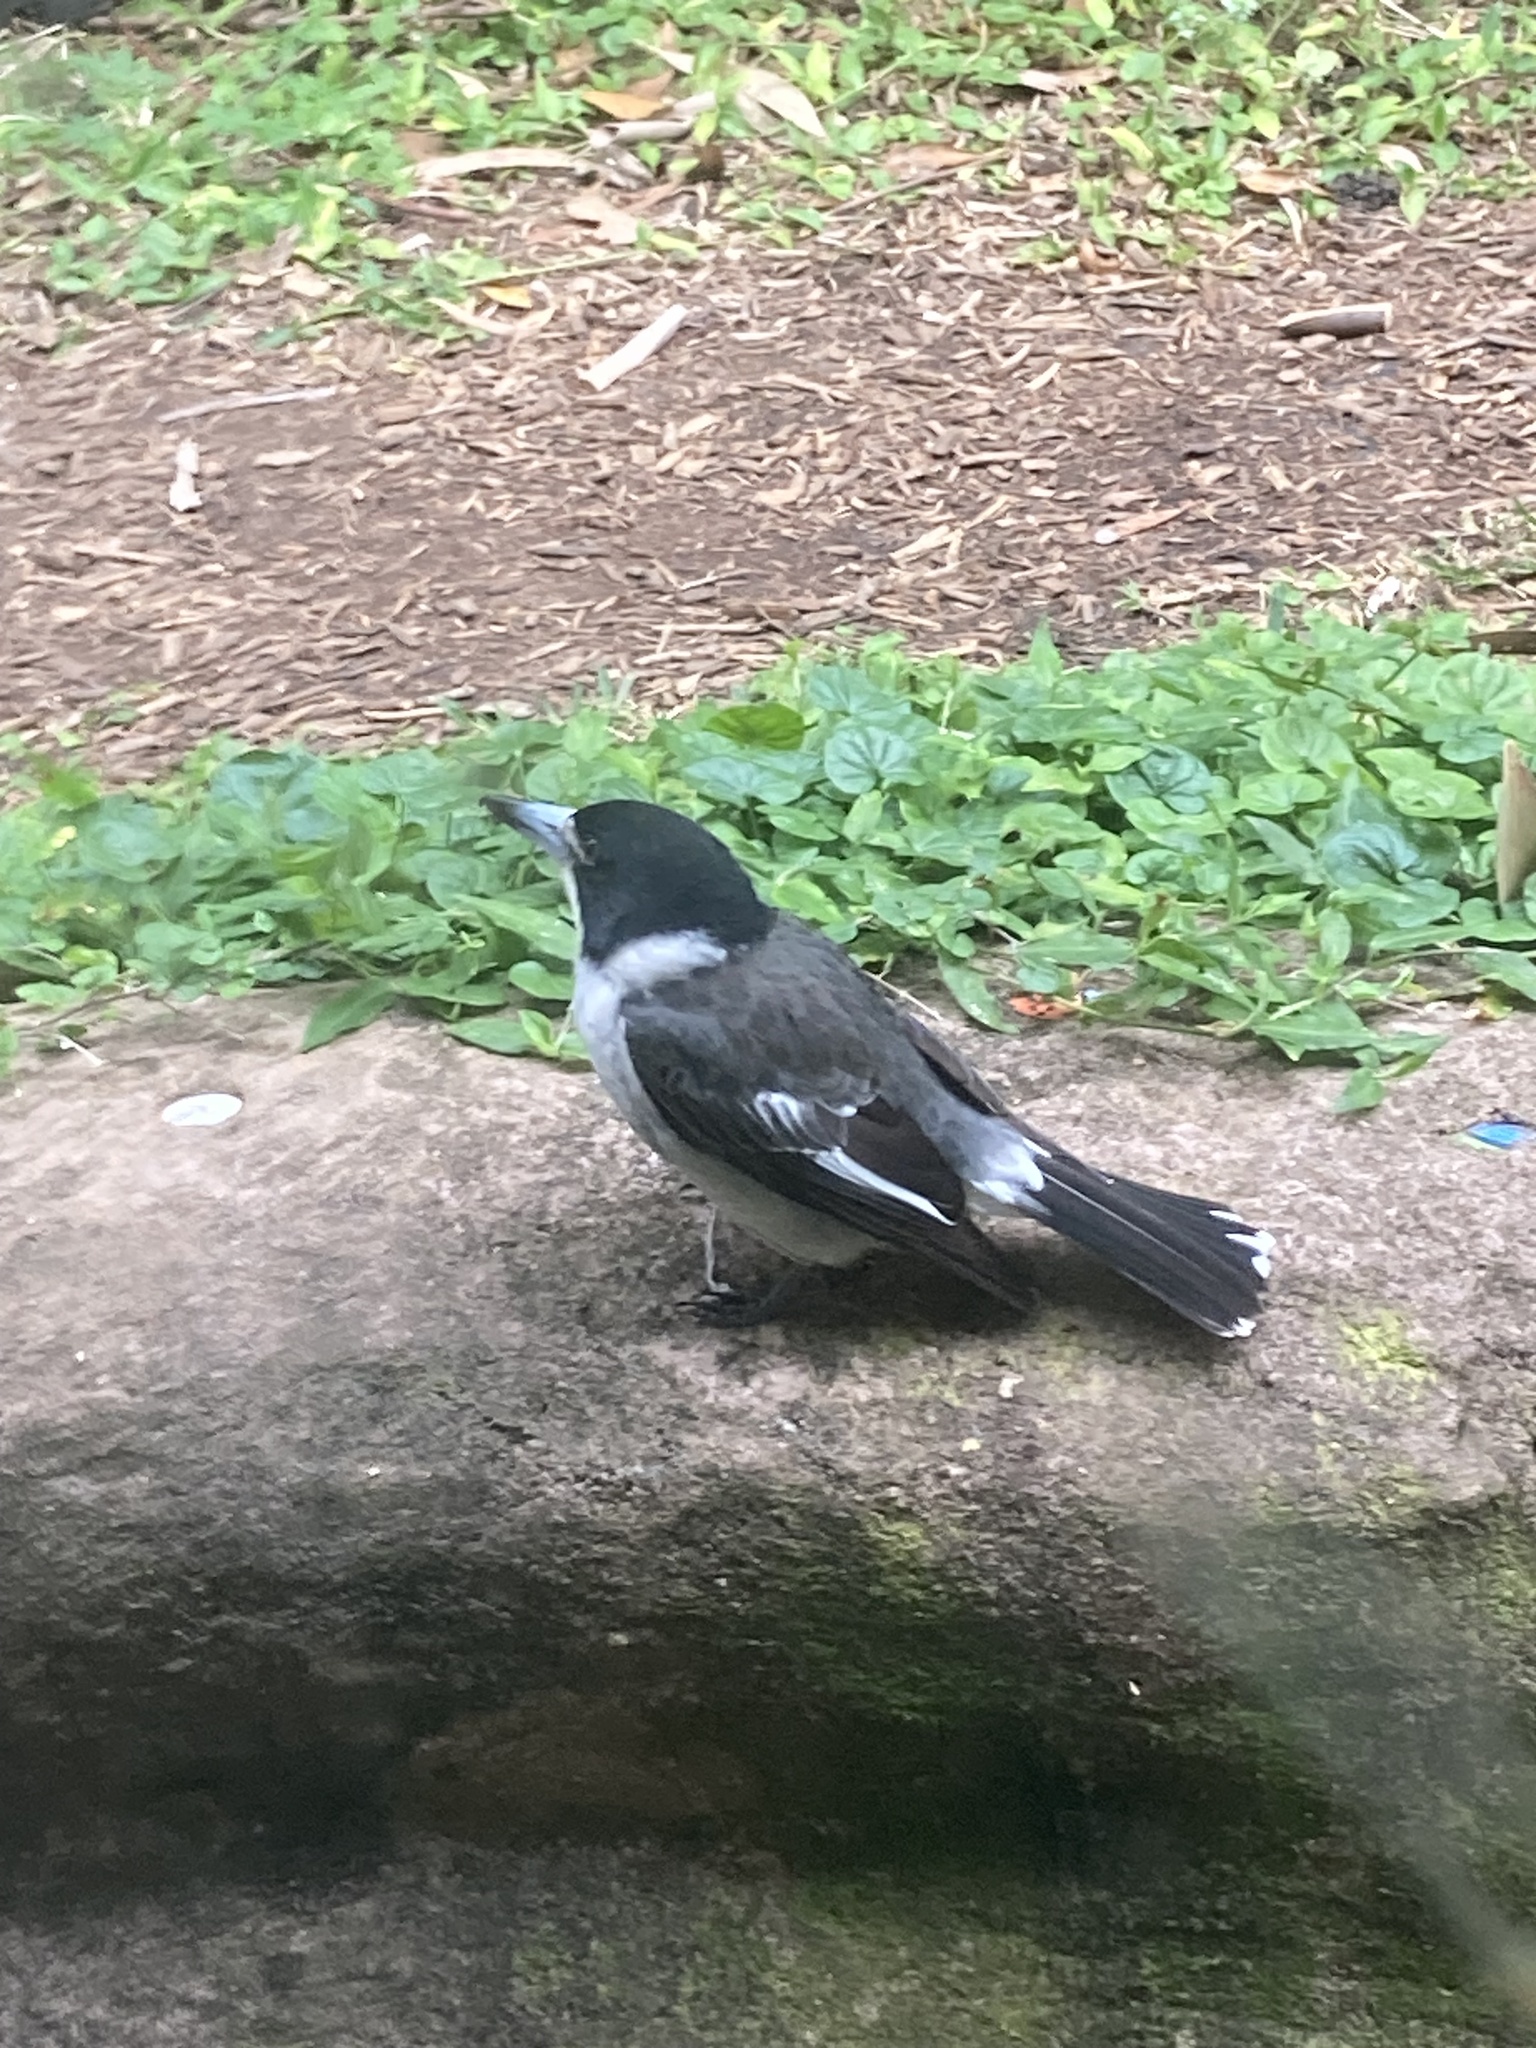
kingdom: Animalia
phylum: Chordata
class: Aves
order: Passeriformes
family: Cracticidae
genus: Cracticus
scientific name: Cracticus torquatus
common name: Grey butcherbird
